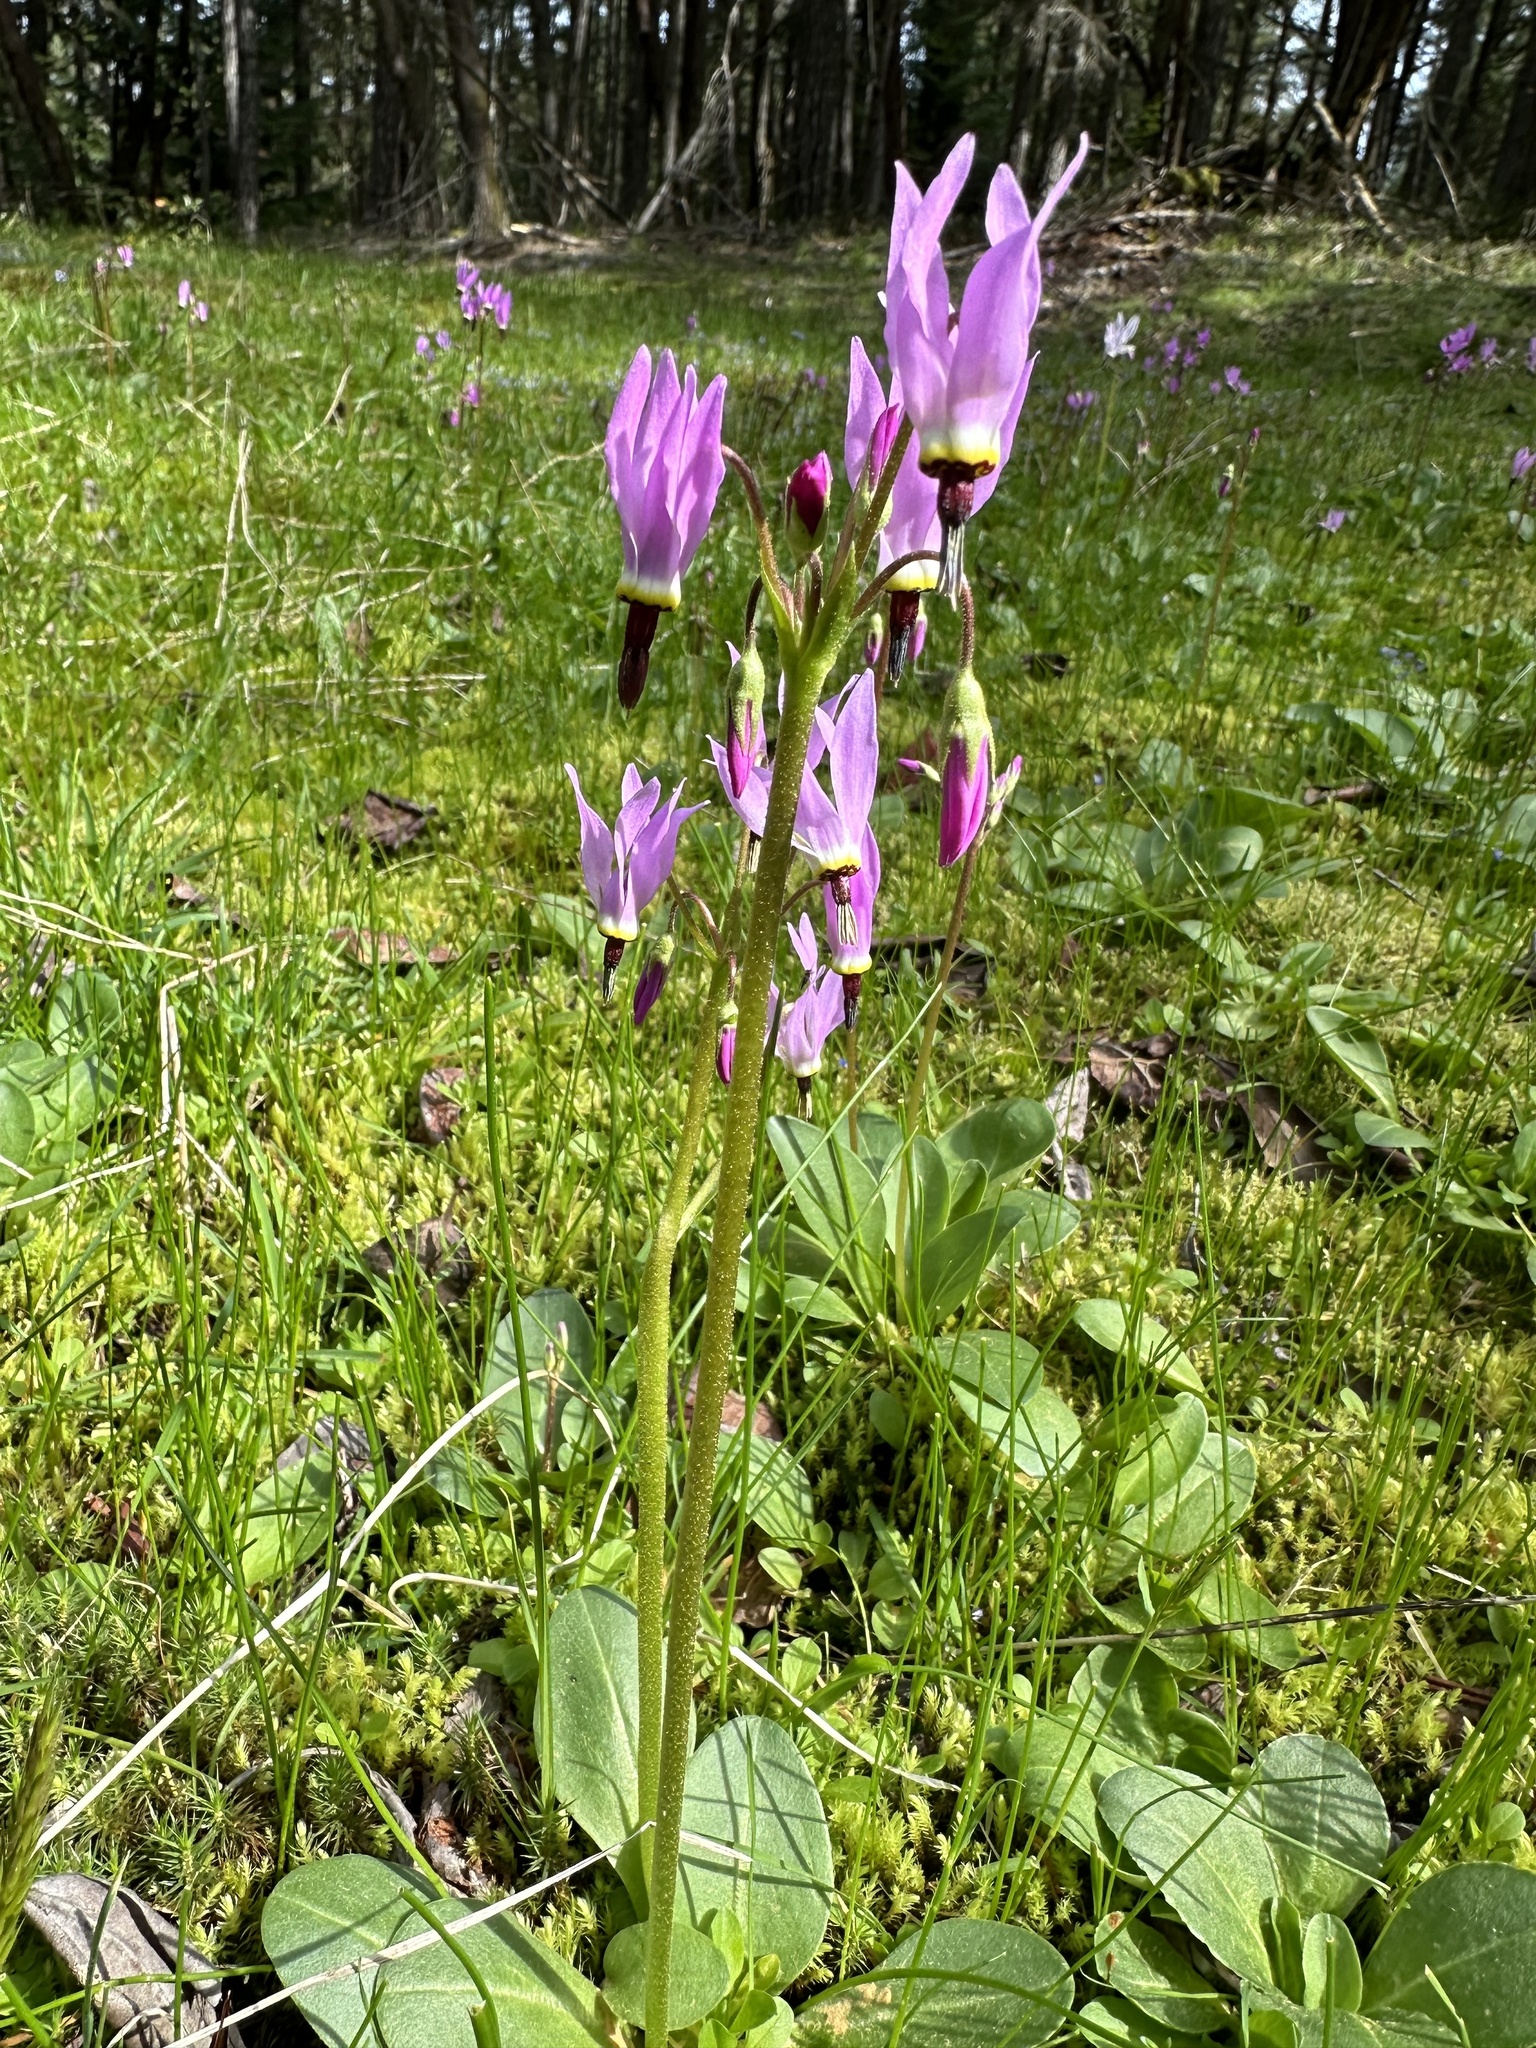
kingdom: Plantae
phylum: Tracheophyta
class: Magnoliopsida
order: Ericales
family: Primulaceae
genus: Dodecatheon
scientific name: Dodecatheon hendersonii
